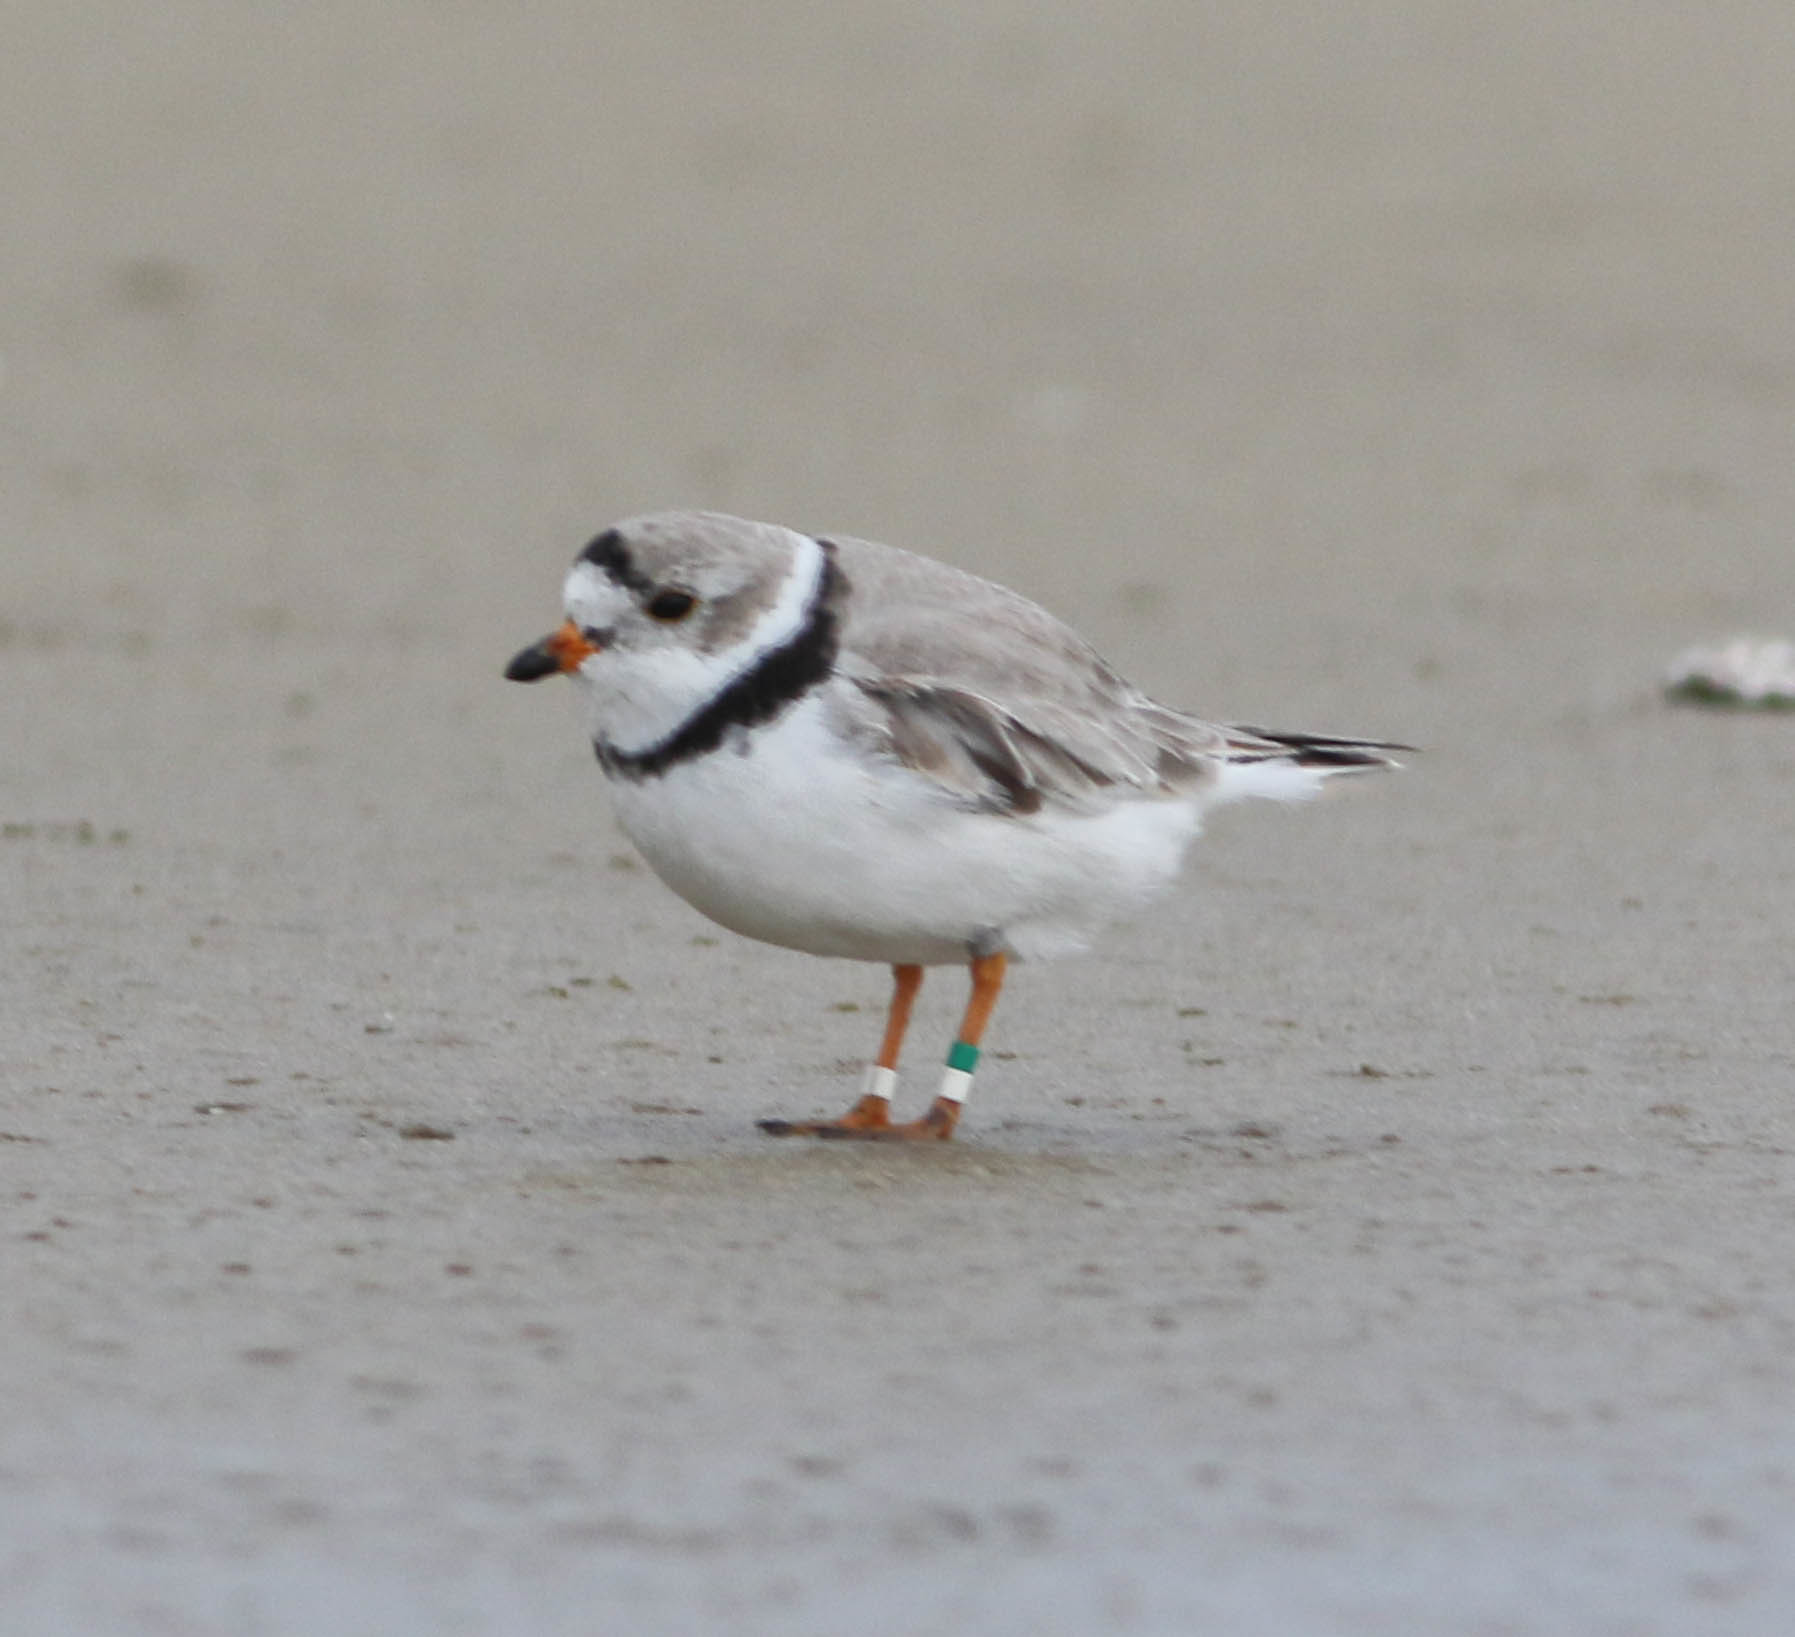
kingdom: Animalia
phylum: Chordata
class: Aves
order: Charadriiformes
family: Charadriidae
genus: Charadrius
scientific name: Charadrius melodus
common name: Piping plover
